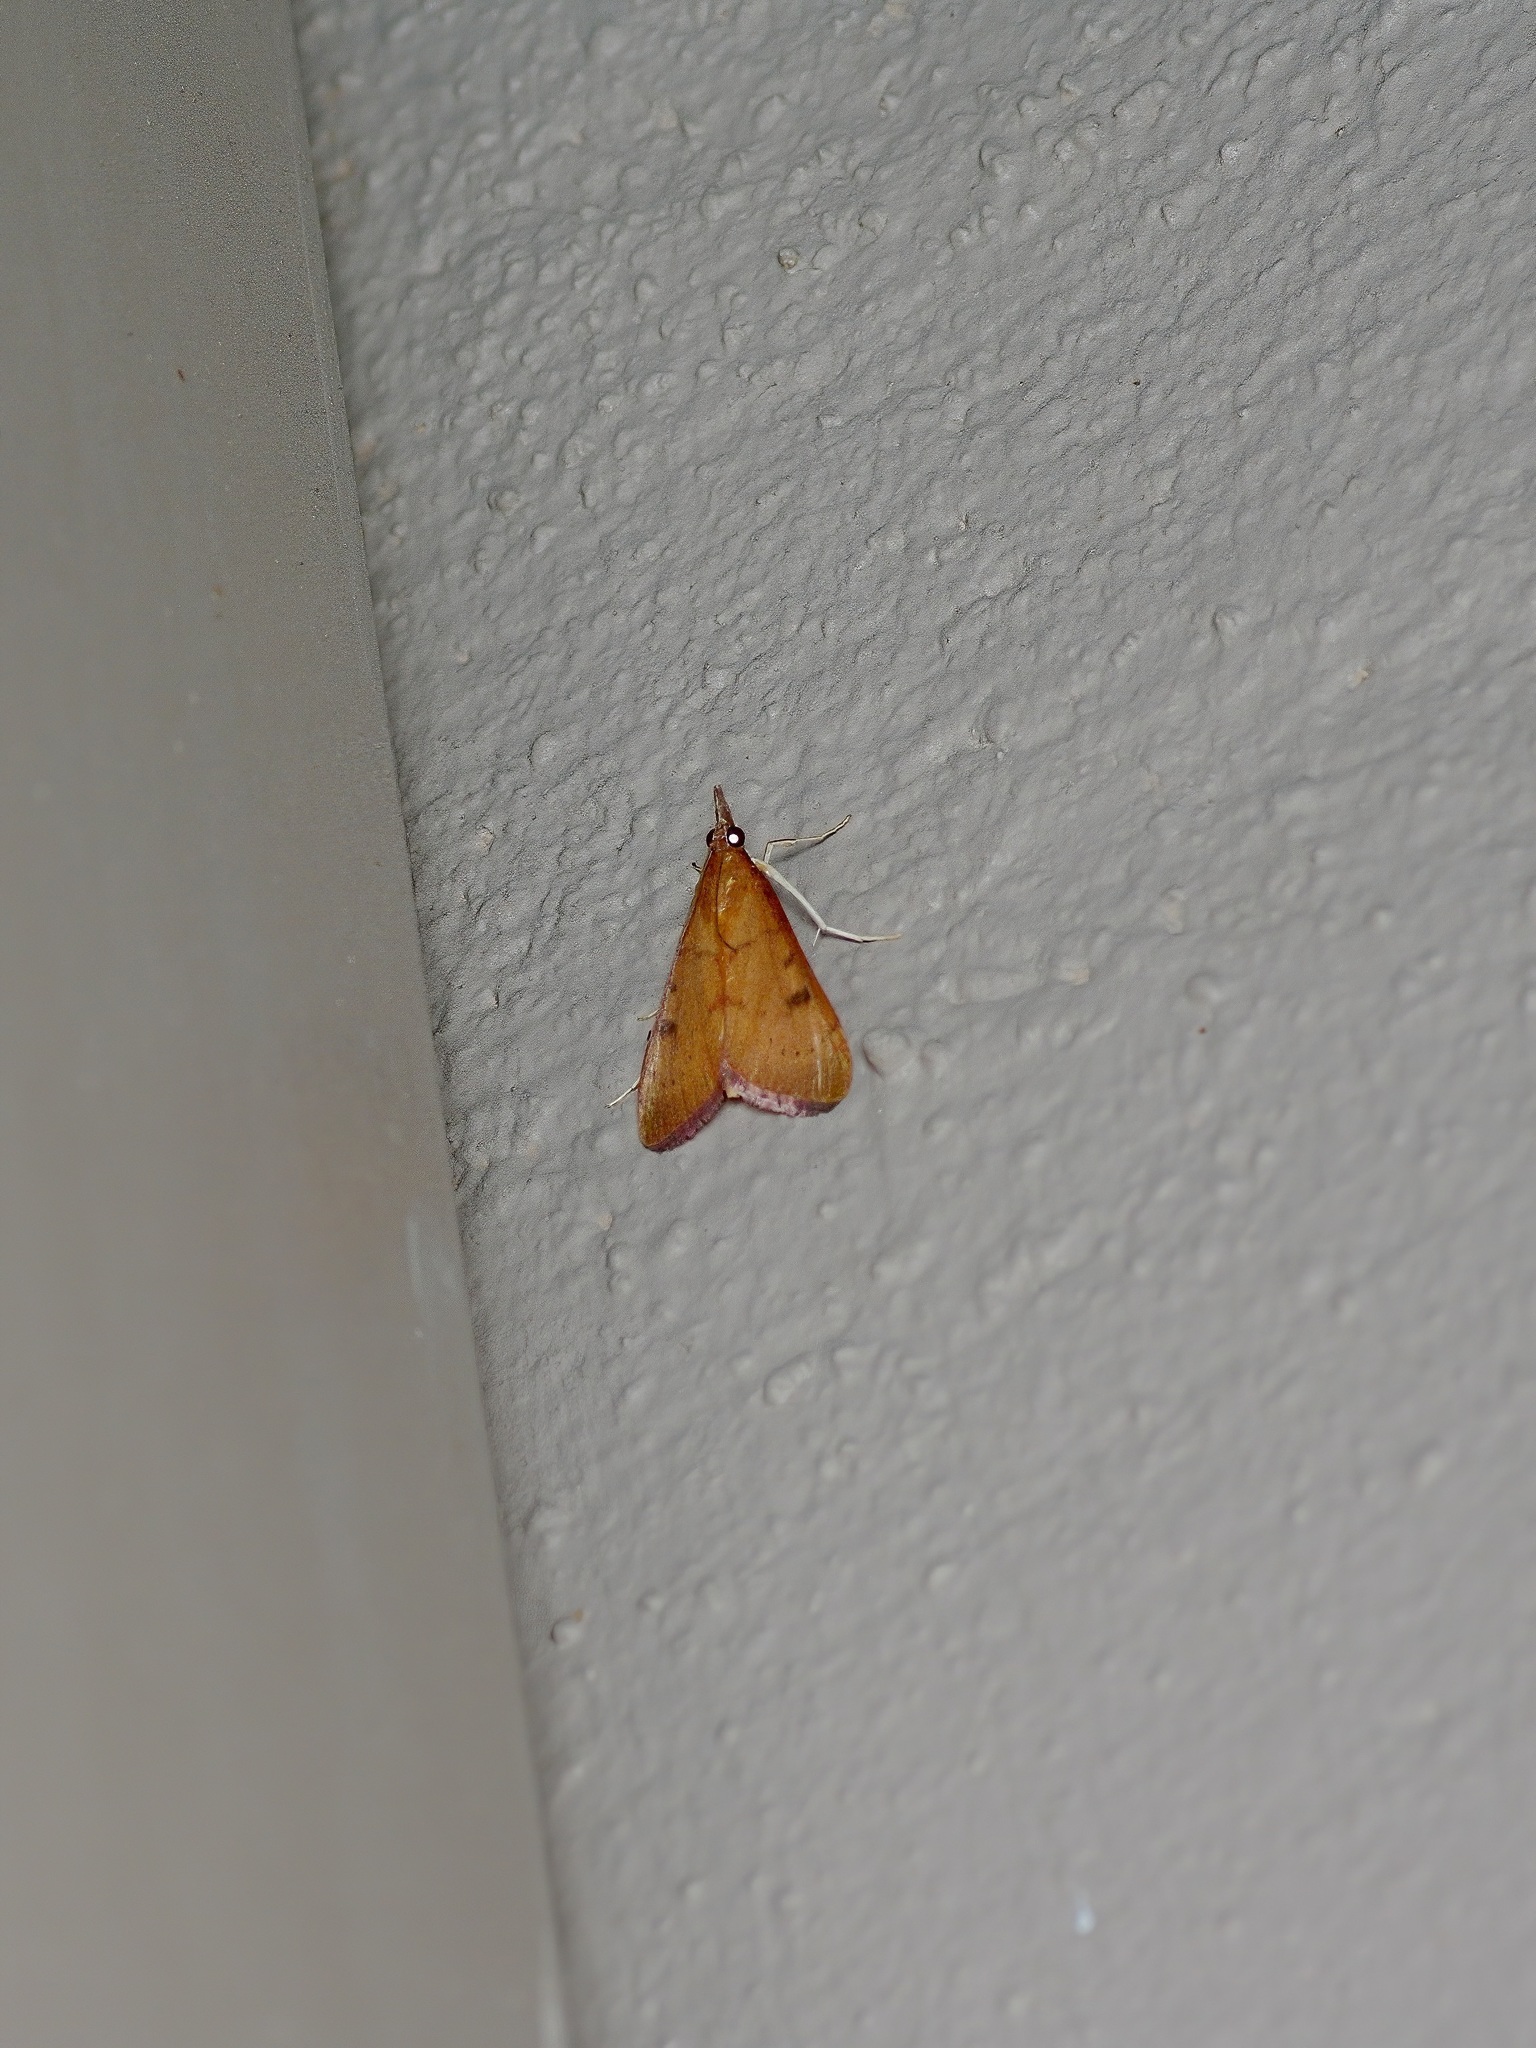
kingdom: Animalia
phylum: Arthropoda
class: Insecta
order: Lepidoptera
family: Crambidae
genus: Uresiphita
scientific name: Uresiphita reversalis
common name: Genista broom moth
